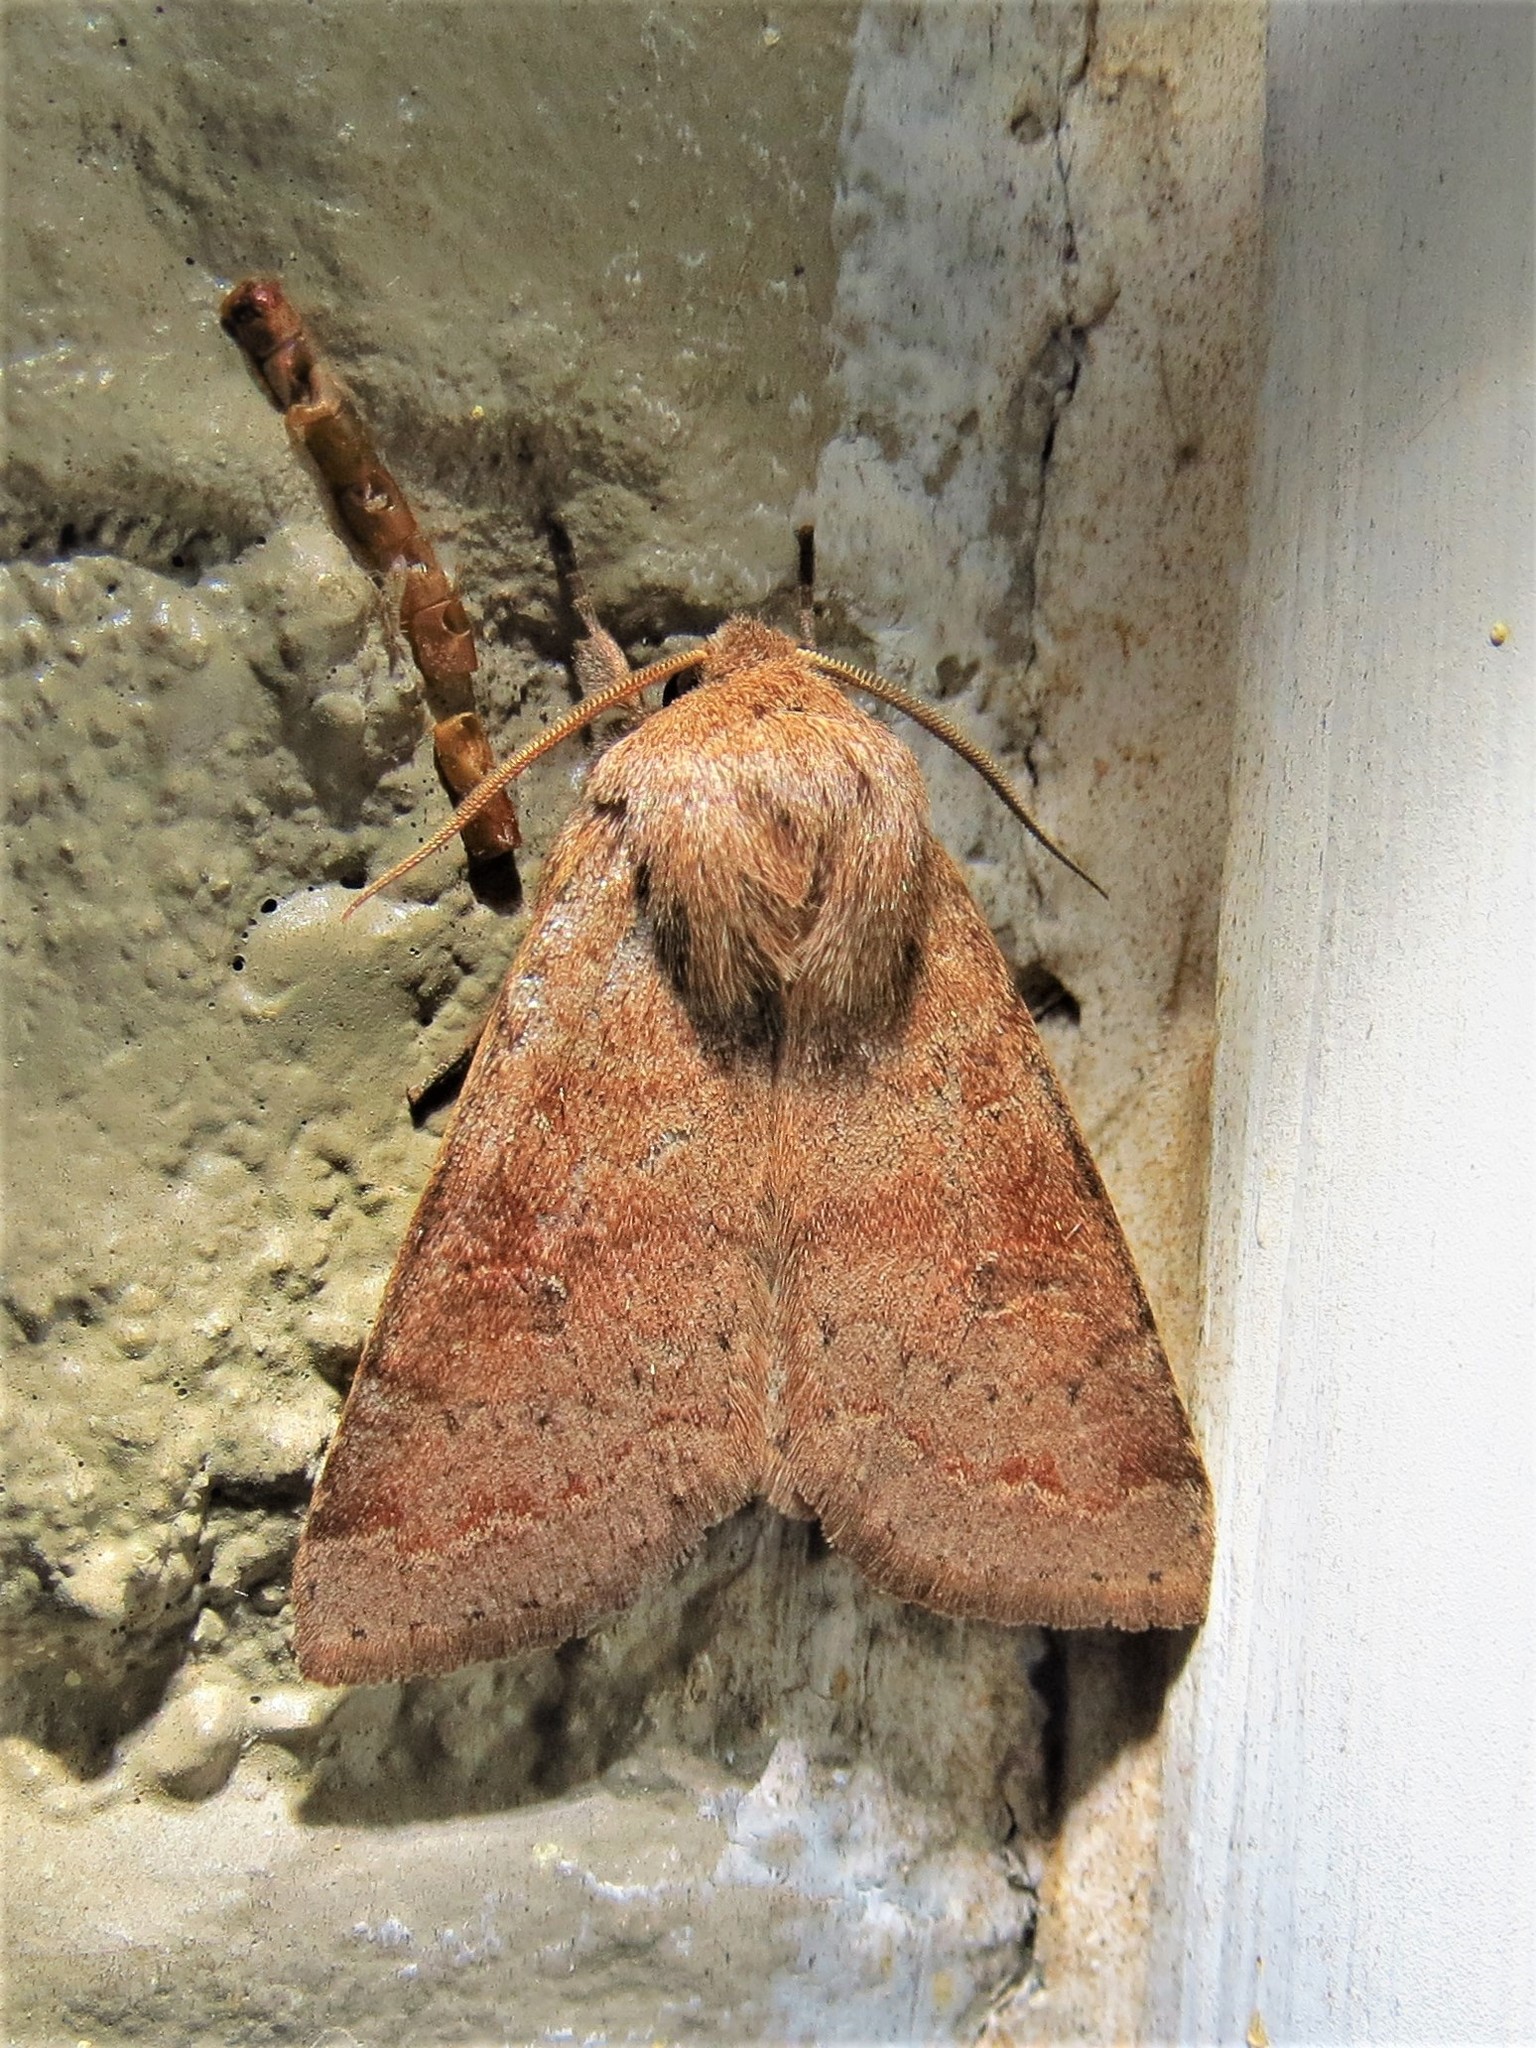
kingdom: Animalia
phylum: Arthropoda
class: Insecta
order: Lepidoptera
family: Noctuidae
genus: Orthosia
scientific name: Orthosia alurina
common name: Gray quaker
